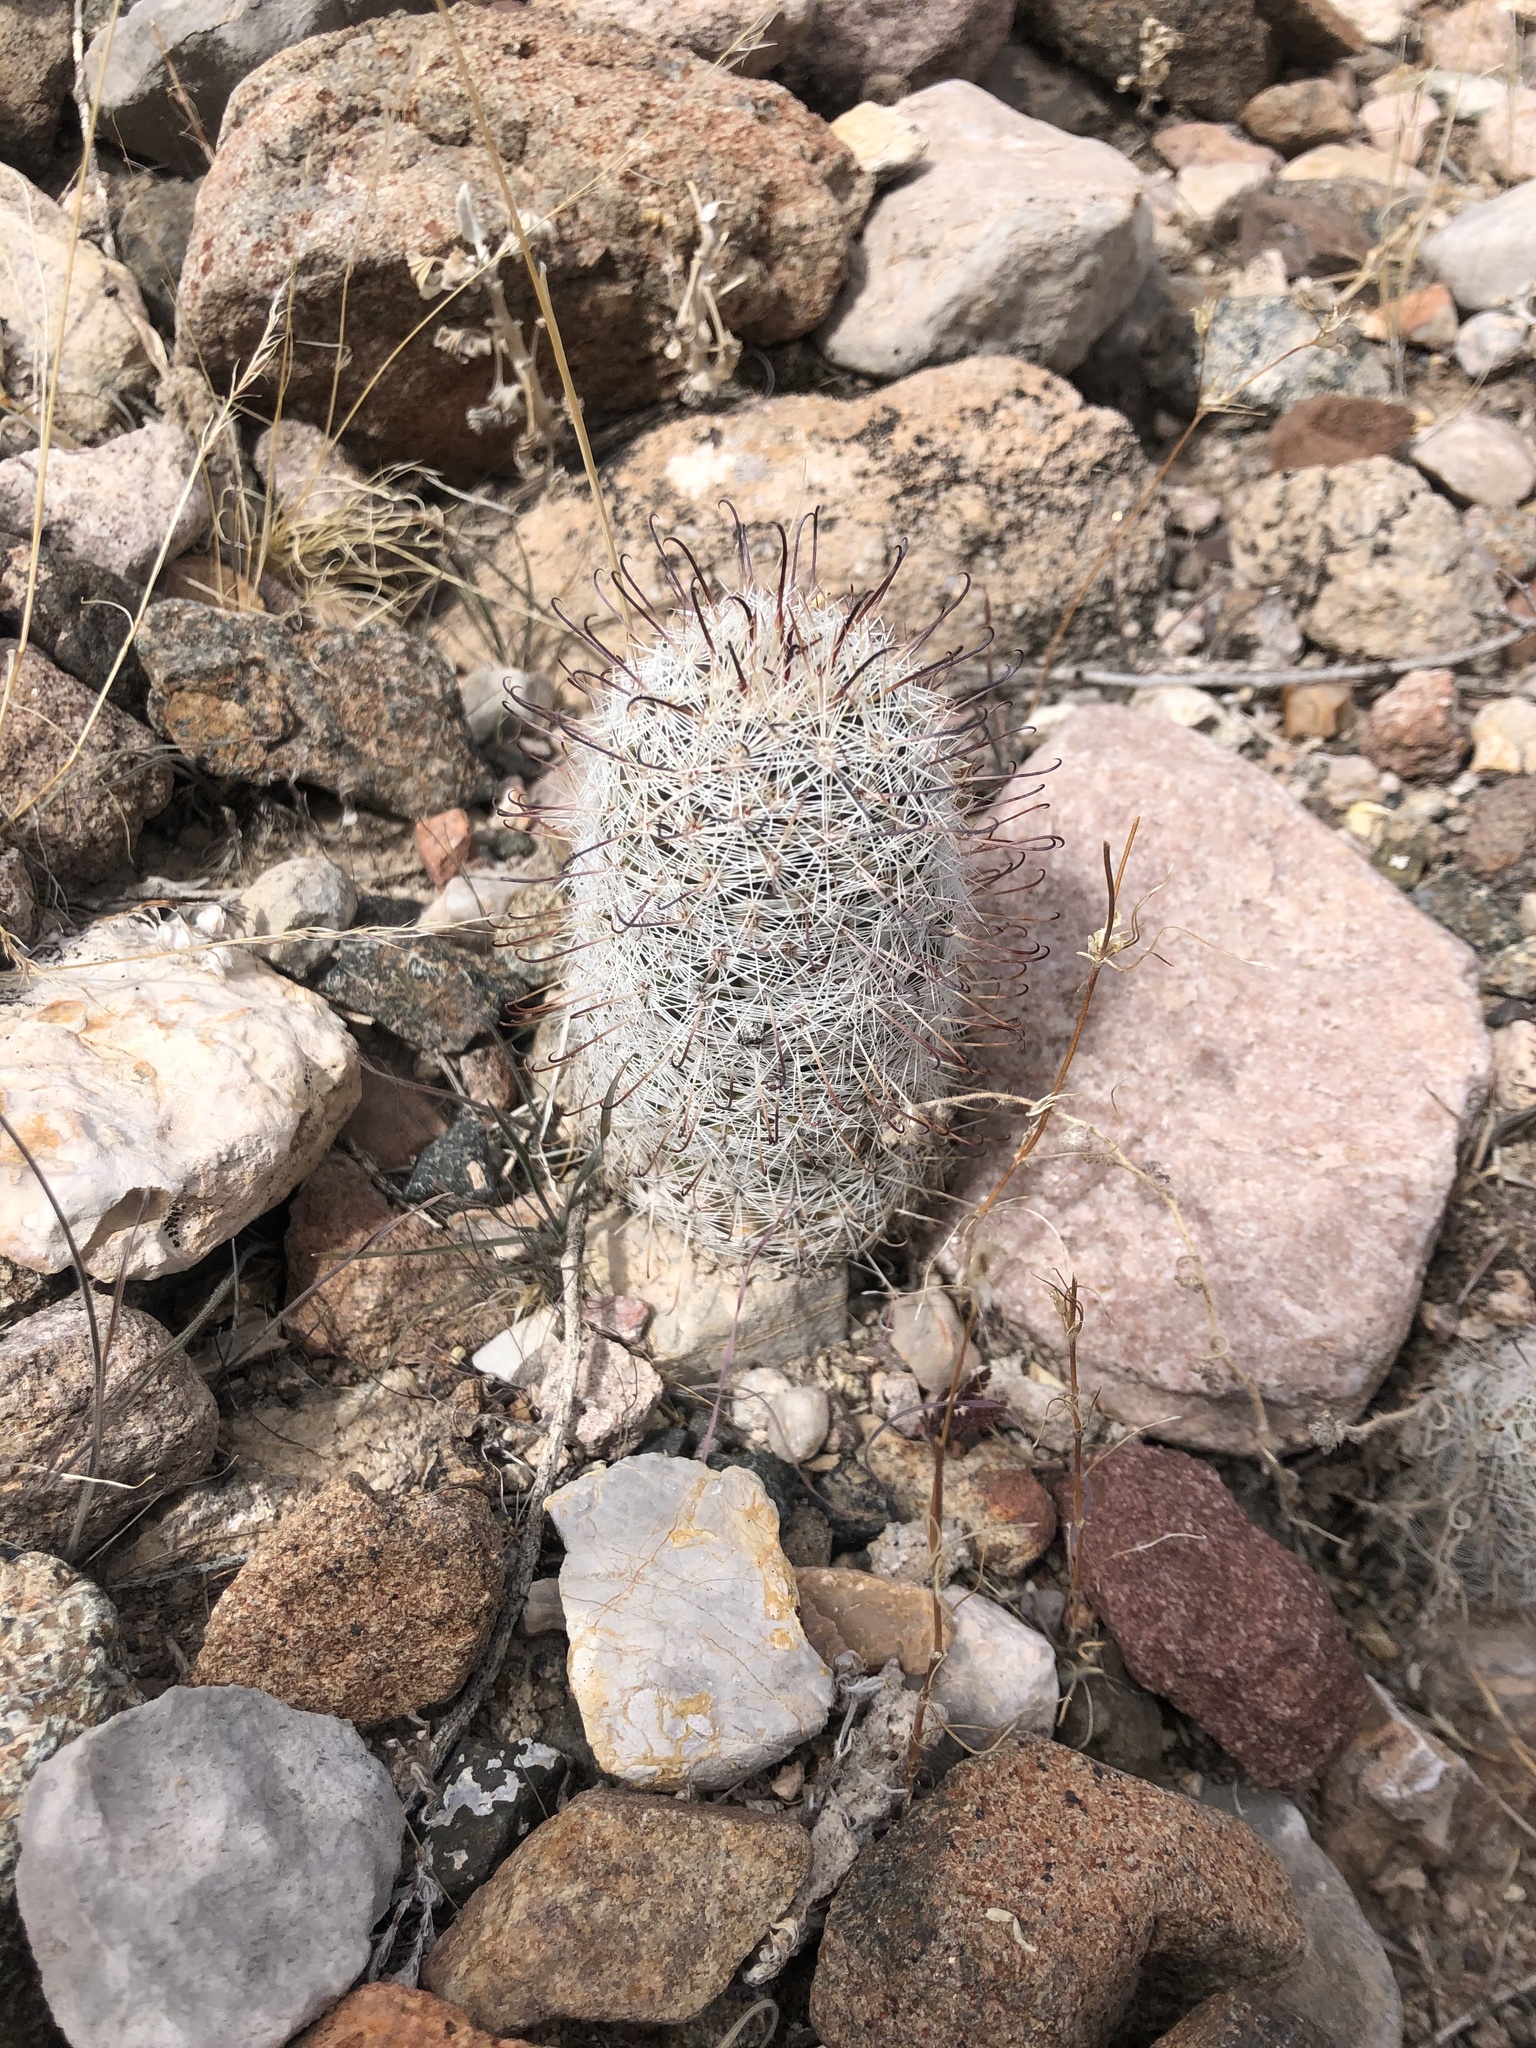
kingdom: Plantae
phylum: Tracheophyta
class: Magnoliopsida
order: Caryophyllales
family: Cactaceae
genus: Cochemiea
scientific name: Cochemiea grahamii
